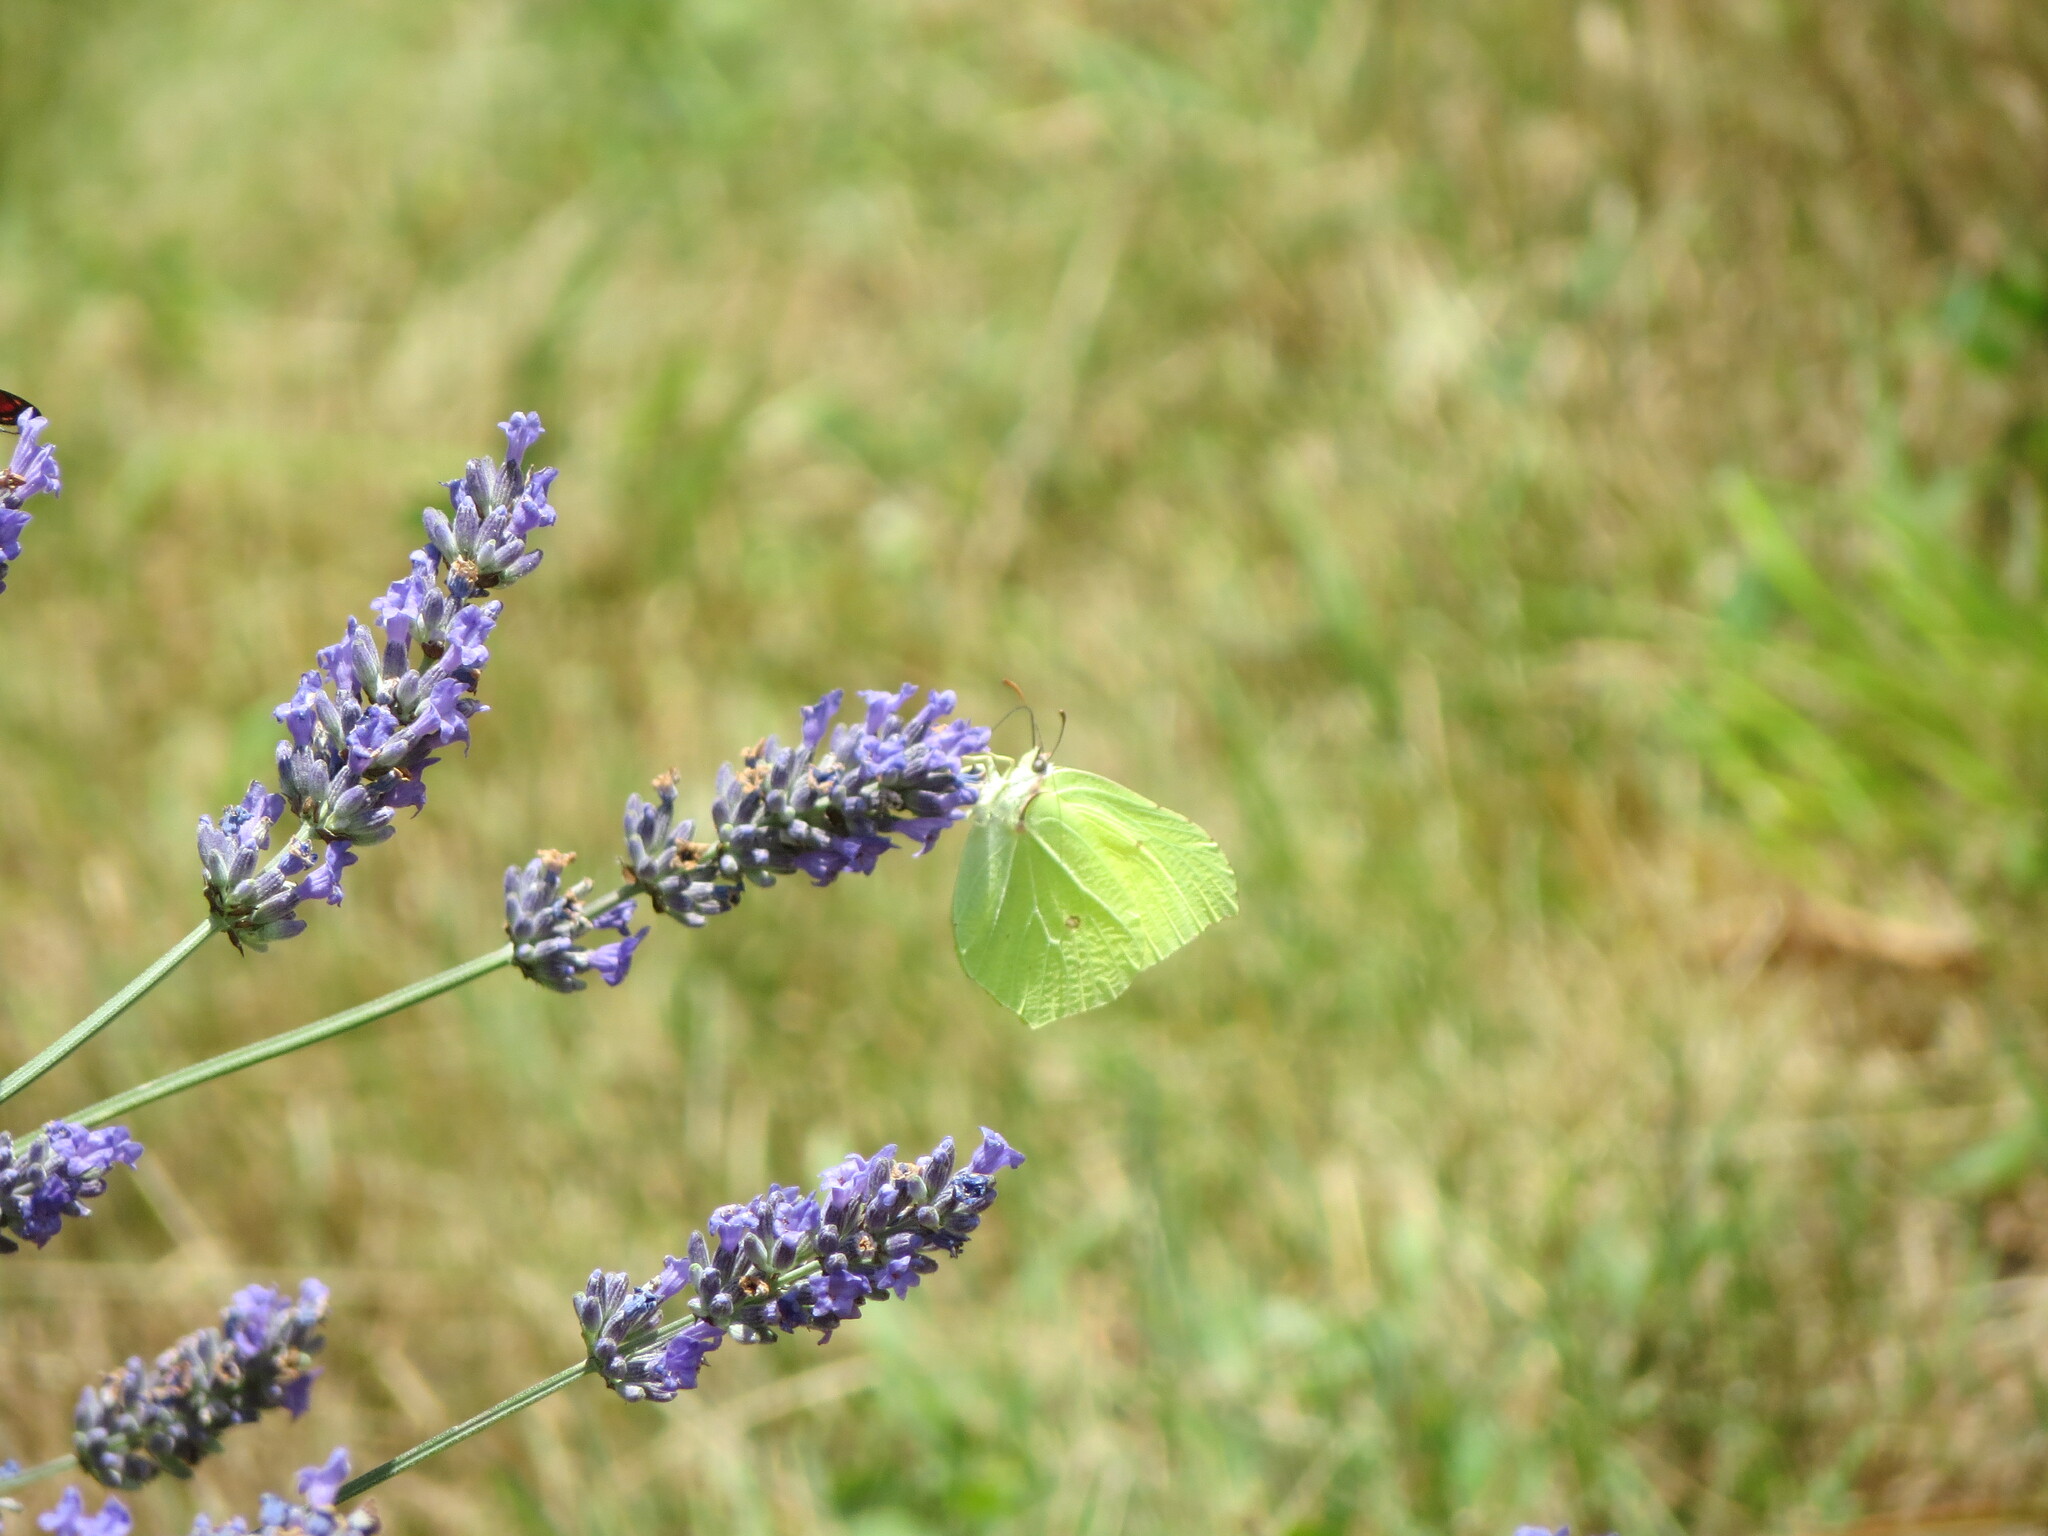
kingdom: Animalia
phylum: Arthropoda
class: Insecta
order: Lepidoptera
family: Pieridae
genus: Gonepteryx
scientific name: Gonepteryx rhamni
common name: Brimstone
